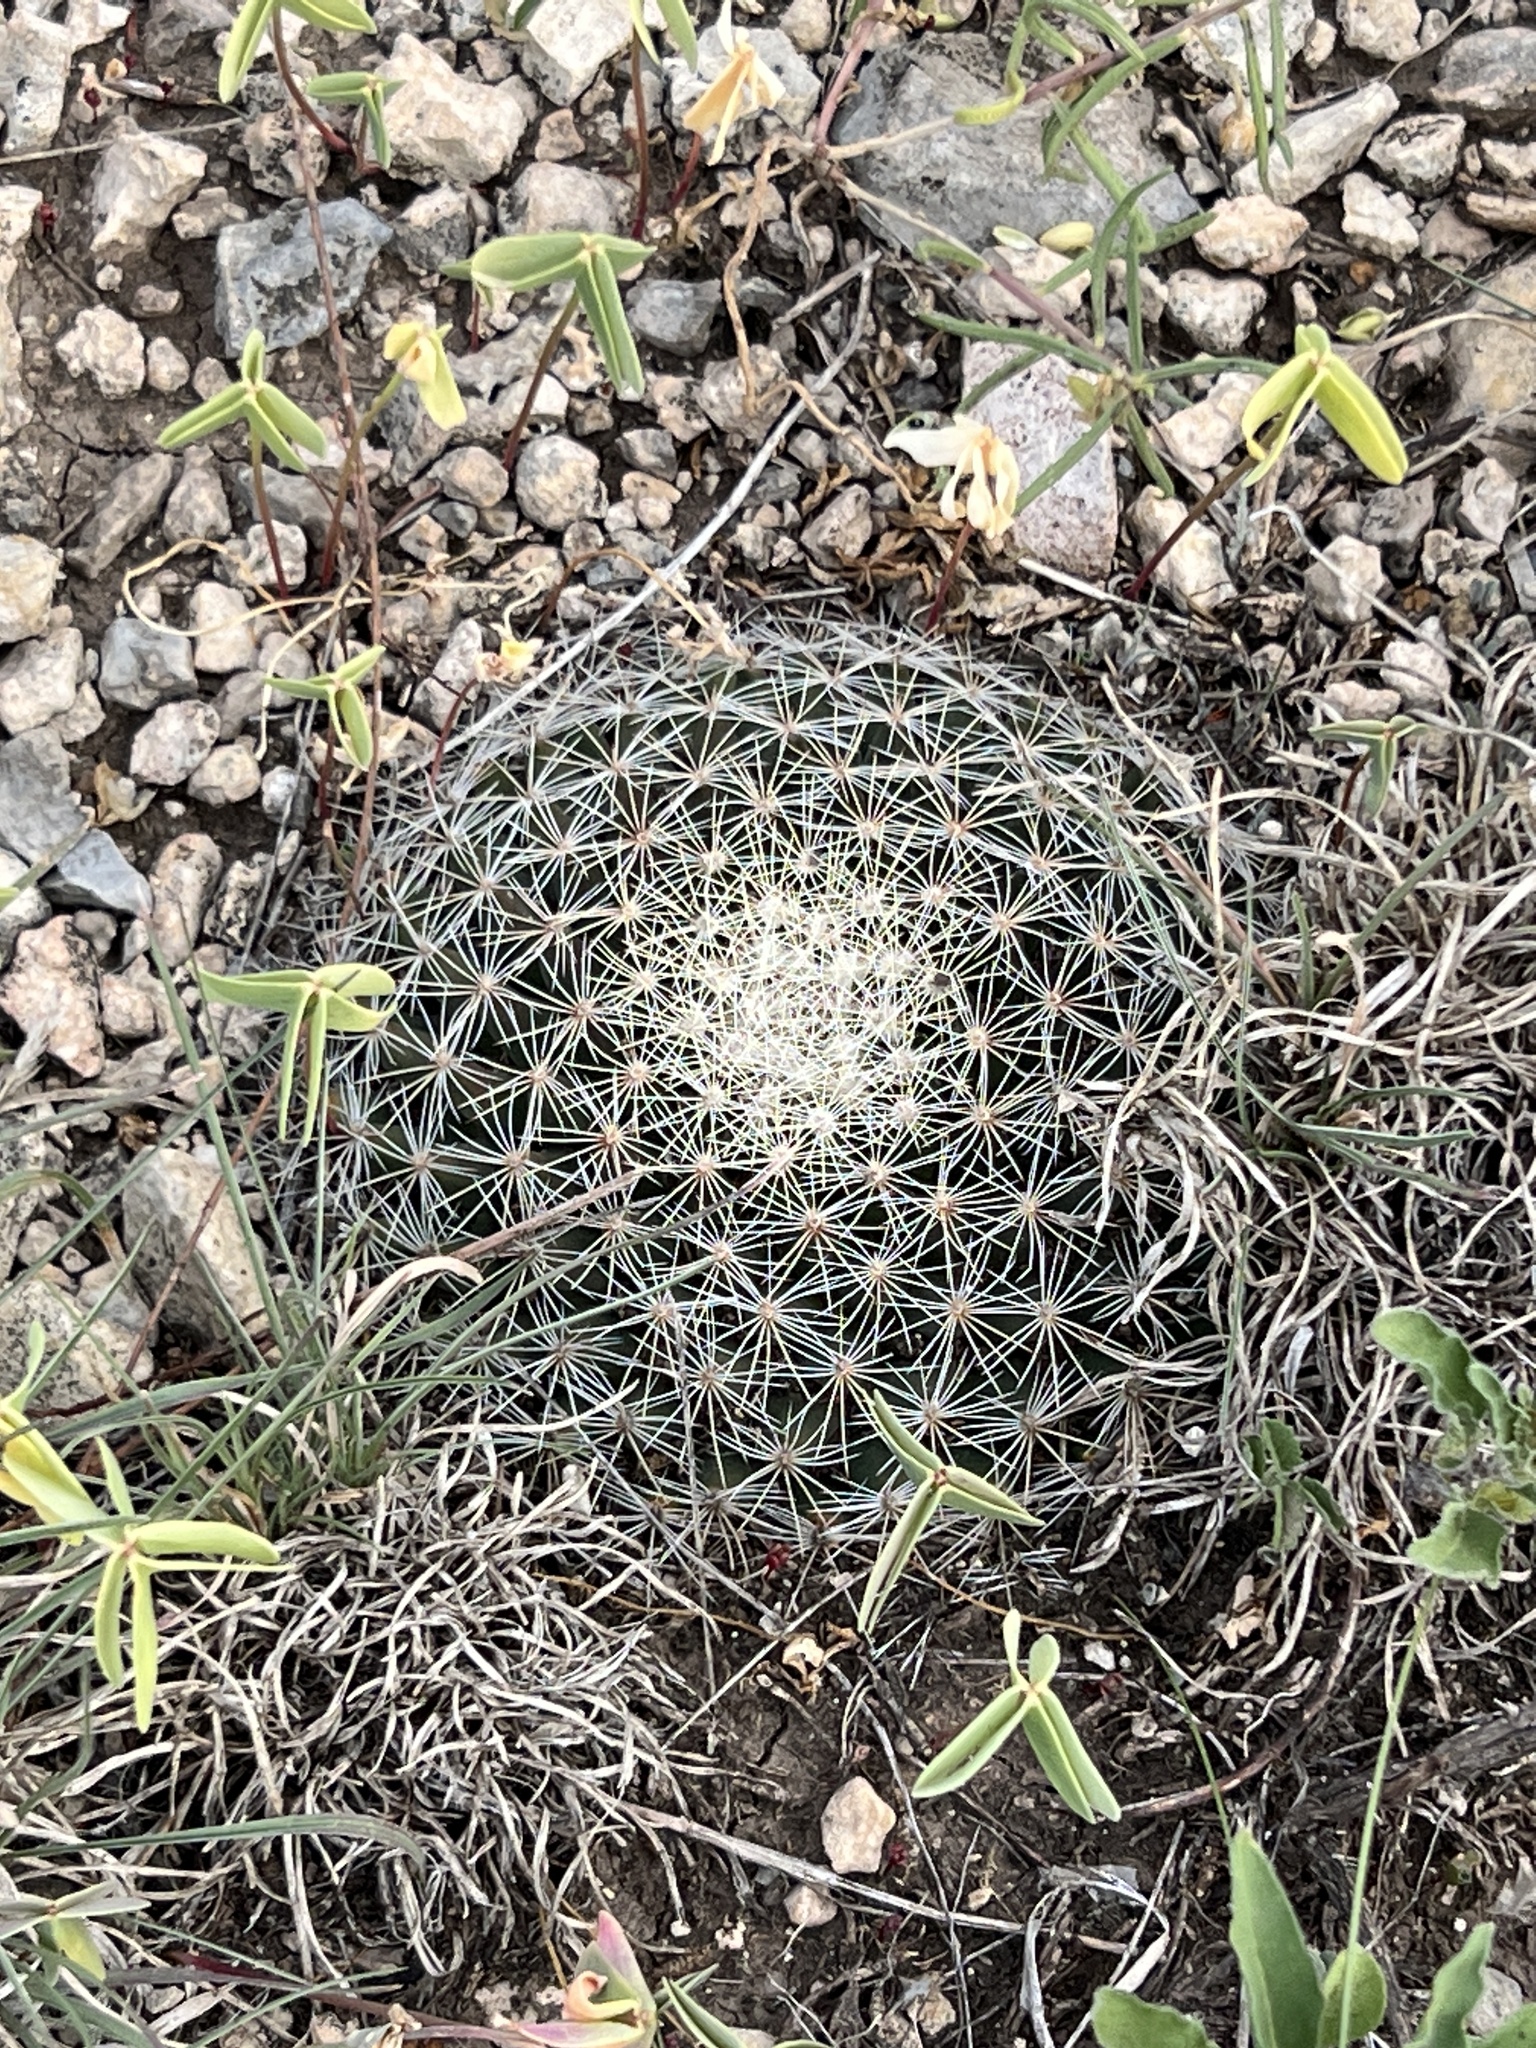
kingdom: Plantae
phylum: Tracheophyta
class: Magnoliopsida
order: Caryophyllales
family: Cactaceae
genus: Mammillaria
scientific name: Mammillaria heyderi
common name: Little nipple cactus
